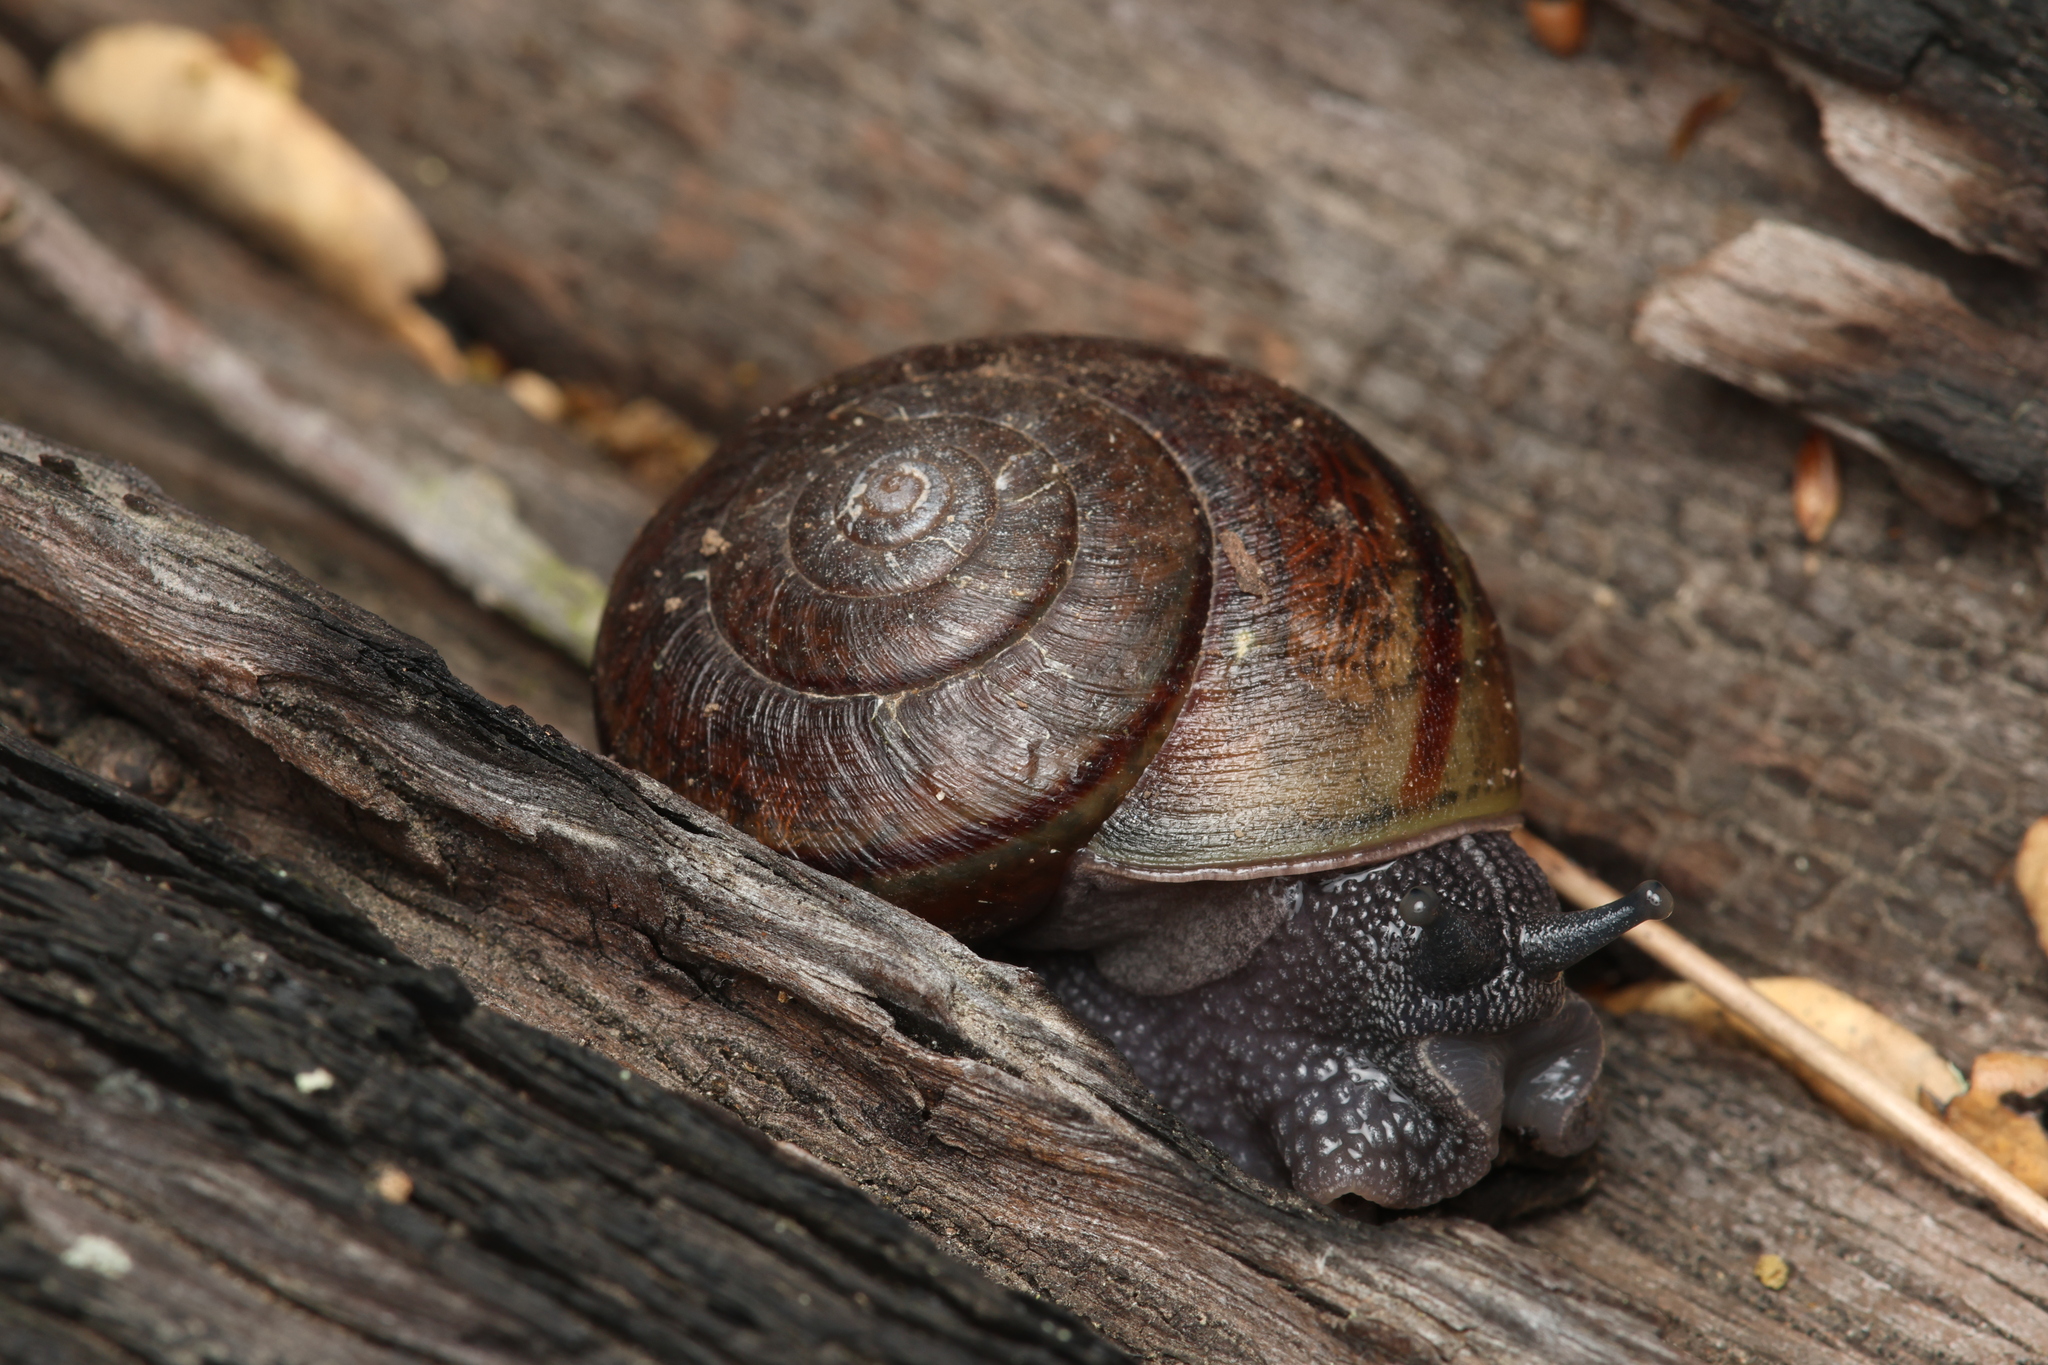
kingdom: Animalia
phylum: Mollusca
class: Gastropoda
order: Stylommatophora
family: Xanthonychidae
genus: Helminthoglypta
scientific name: Helminthoglypta phlyctaena
